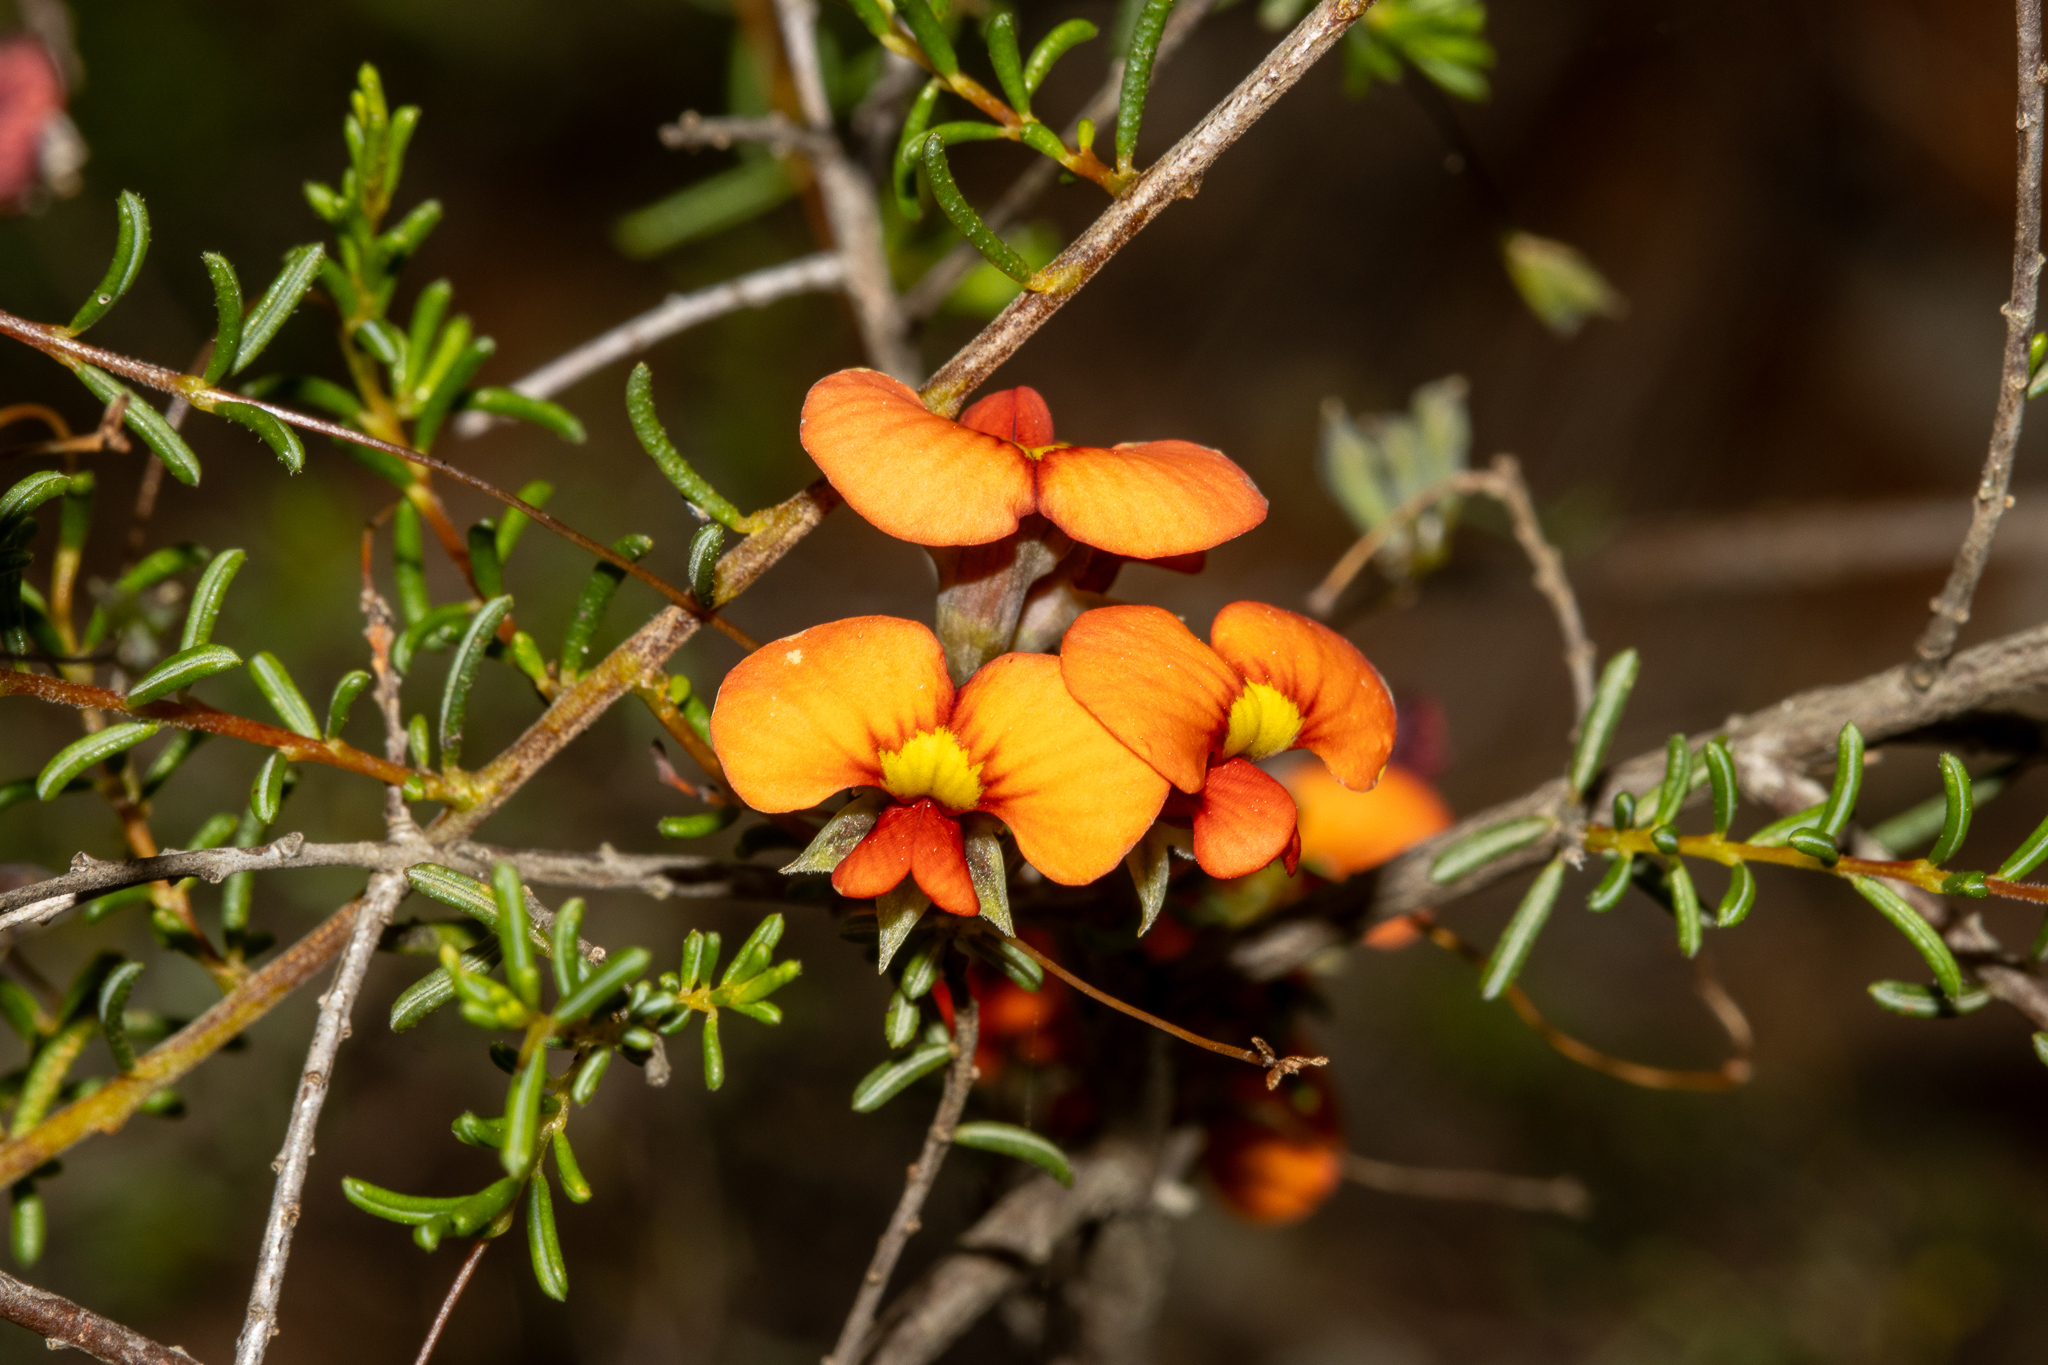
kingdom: Plantae
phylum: Tracheophyta
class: Magnoliopsida
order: Fabales
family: Fabaceae
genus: Dillwynia
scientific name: Dillwynia hispida
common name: Red parrot-pea
